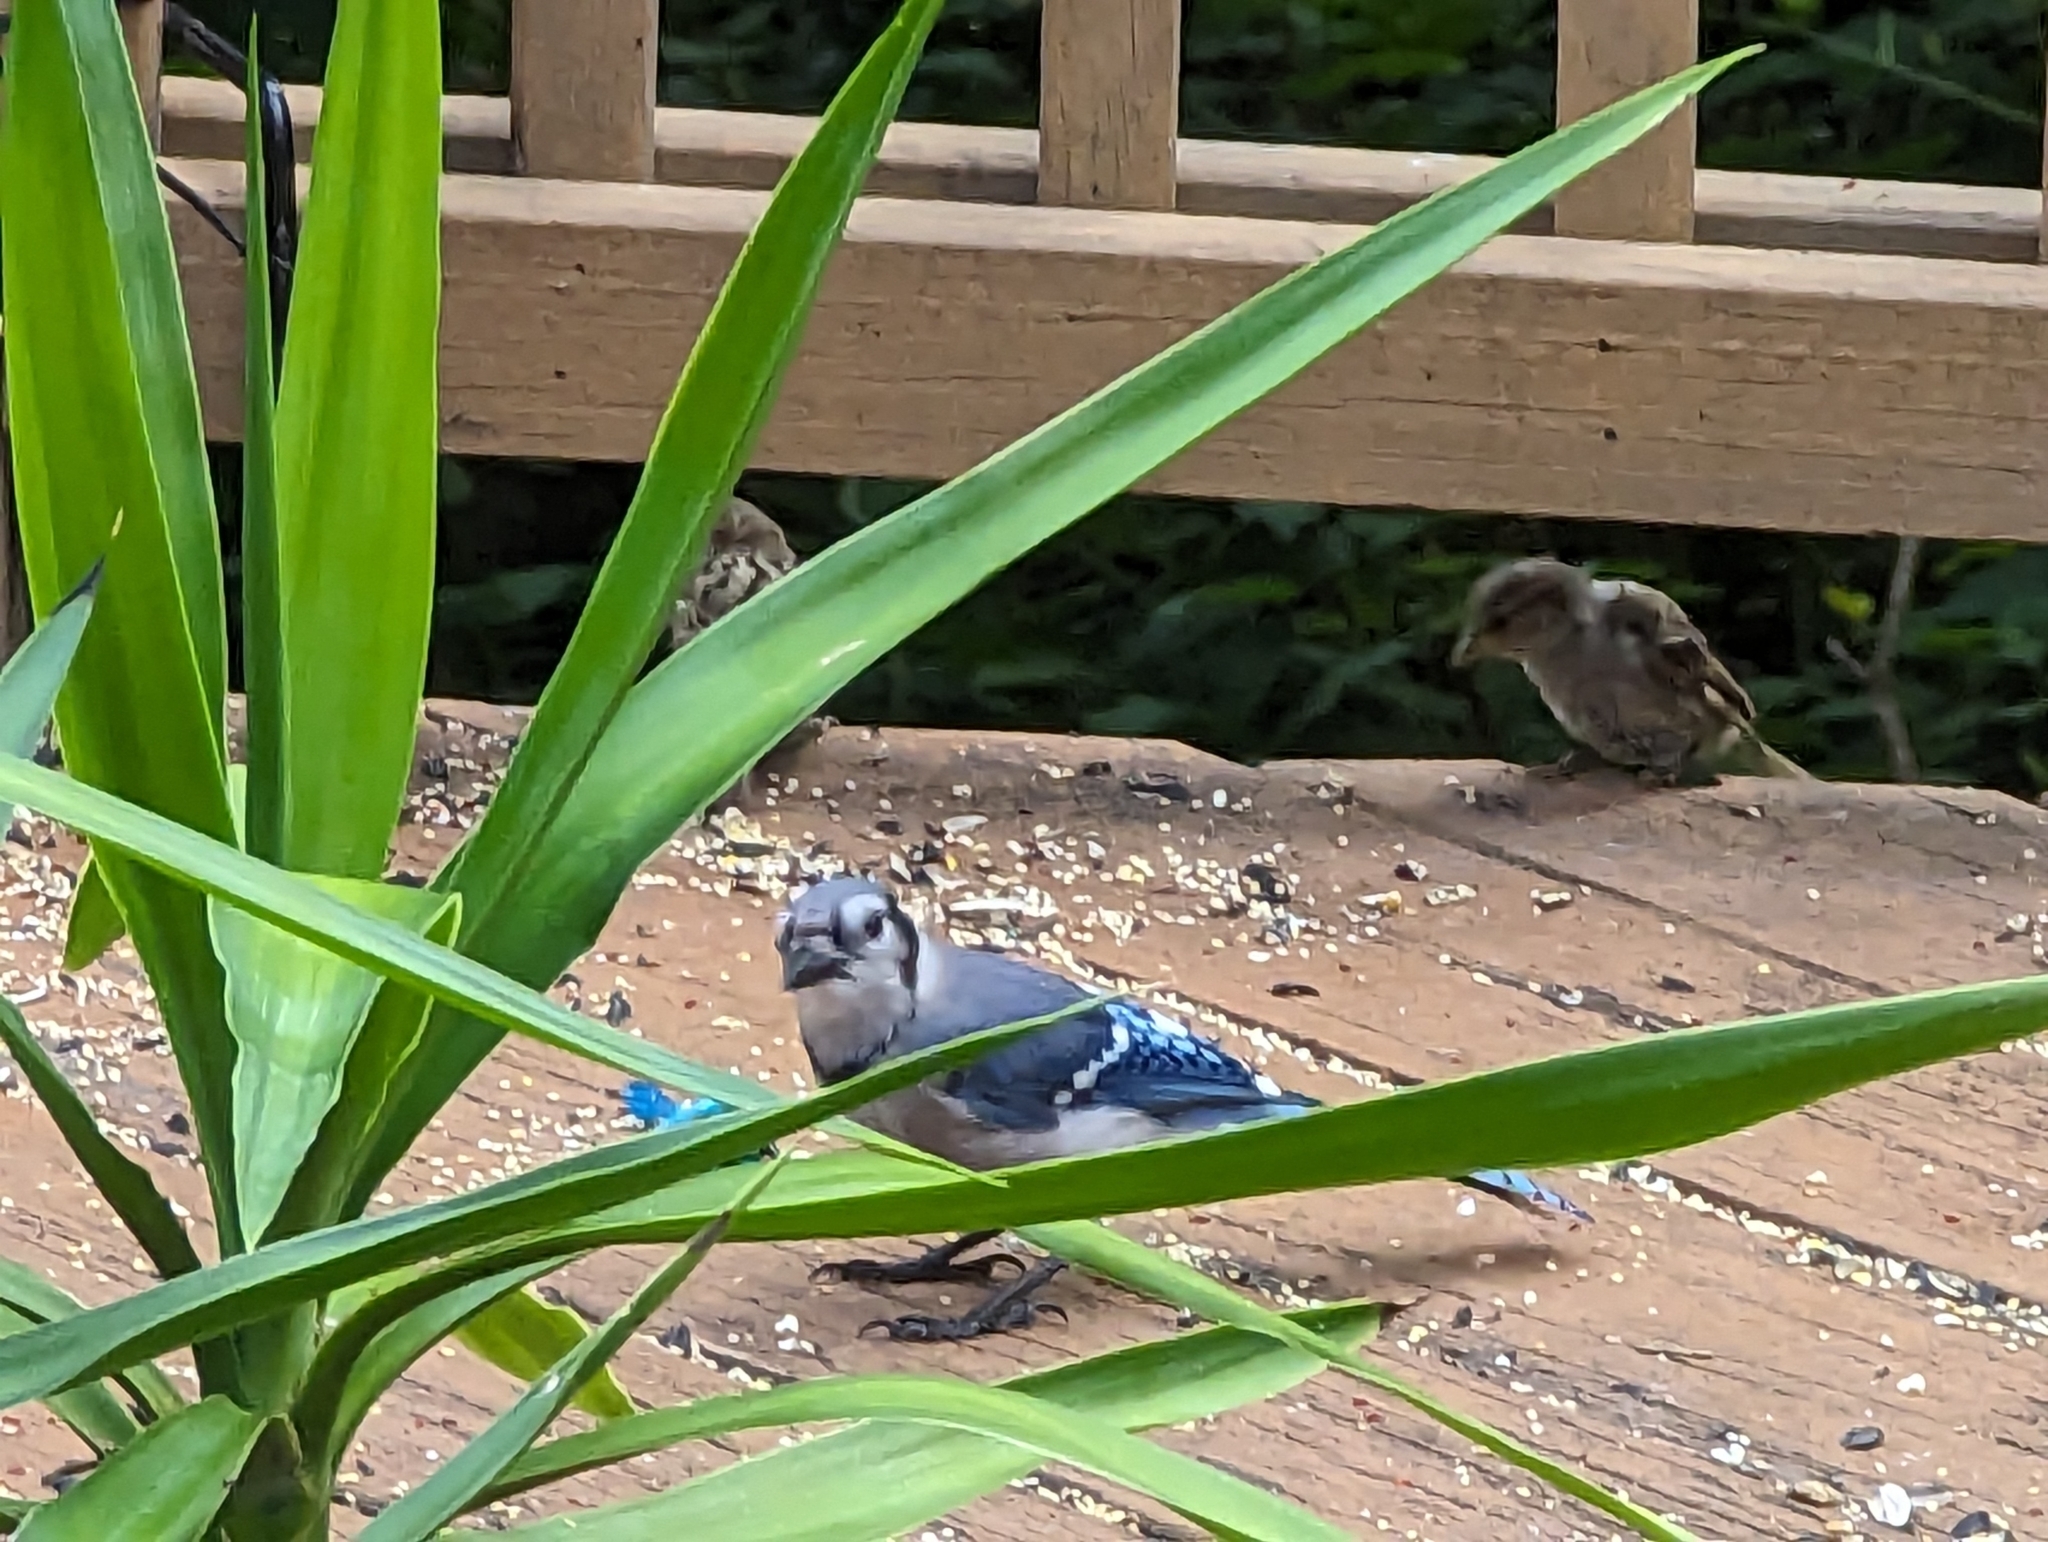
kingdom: Animalia
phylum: Chordata
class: Aves
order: Passeriformes
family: Corvidae
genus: Cyanocitta
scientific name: Cyanocitta cristata
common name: Blue jay
